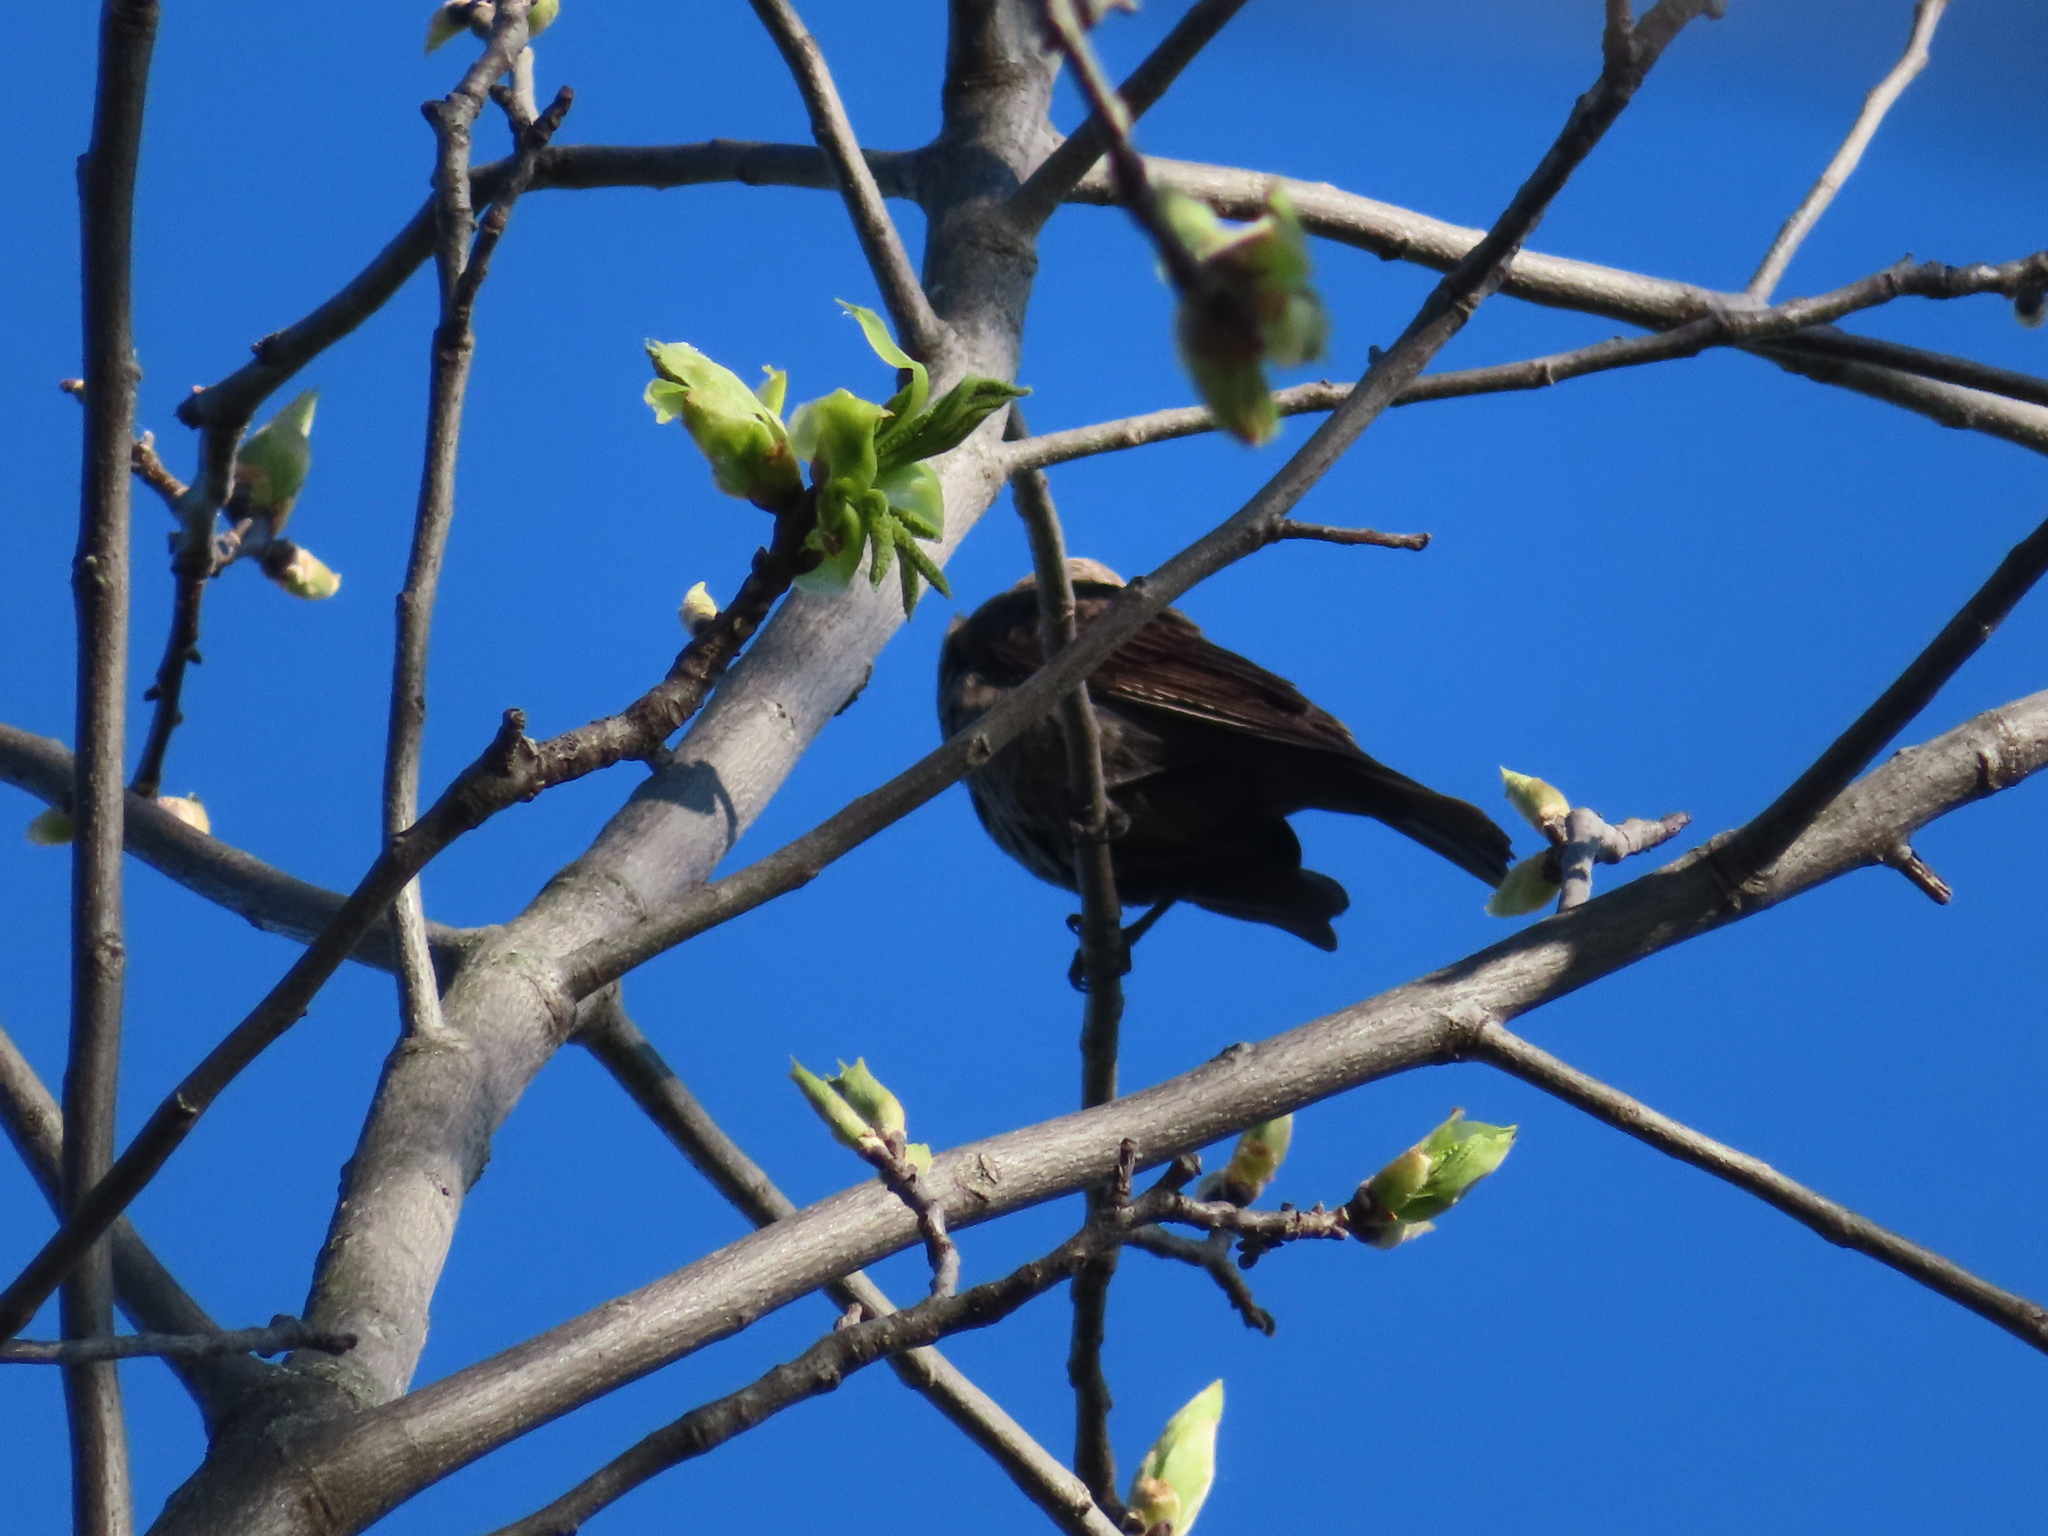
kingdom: Animalia
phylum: Chordata
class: Aves
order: Passeriformes
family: Icteridae
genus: Agelaius
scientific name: Agelaius phoeniceus
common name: Red-winged blackbird
